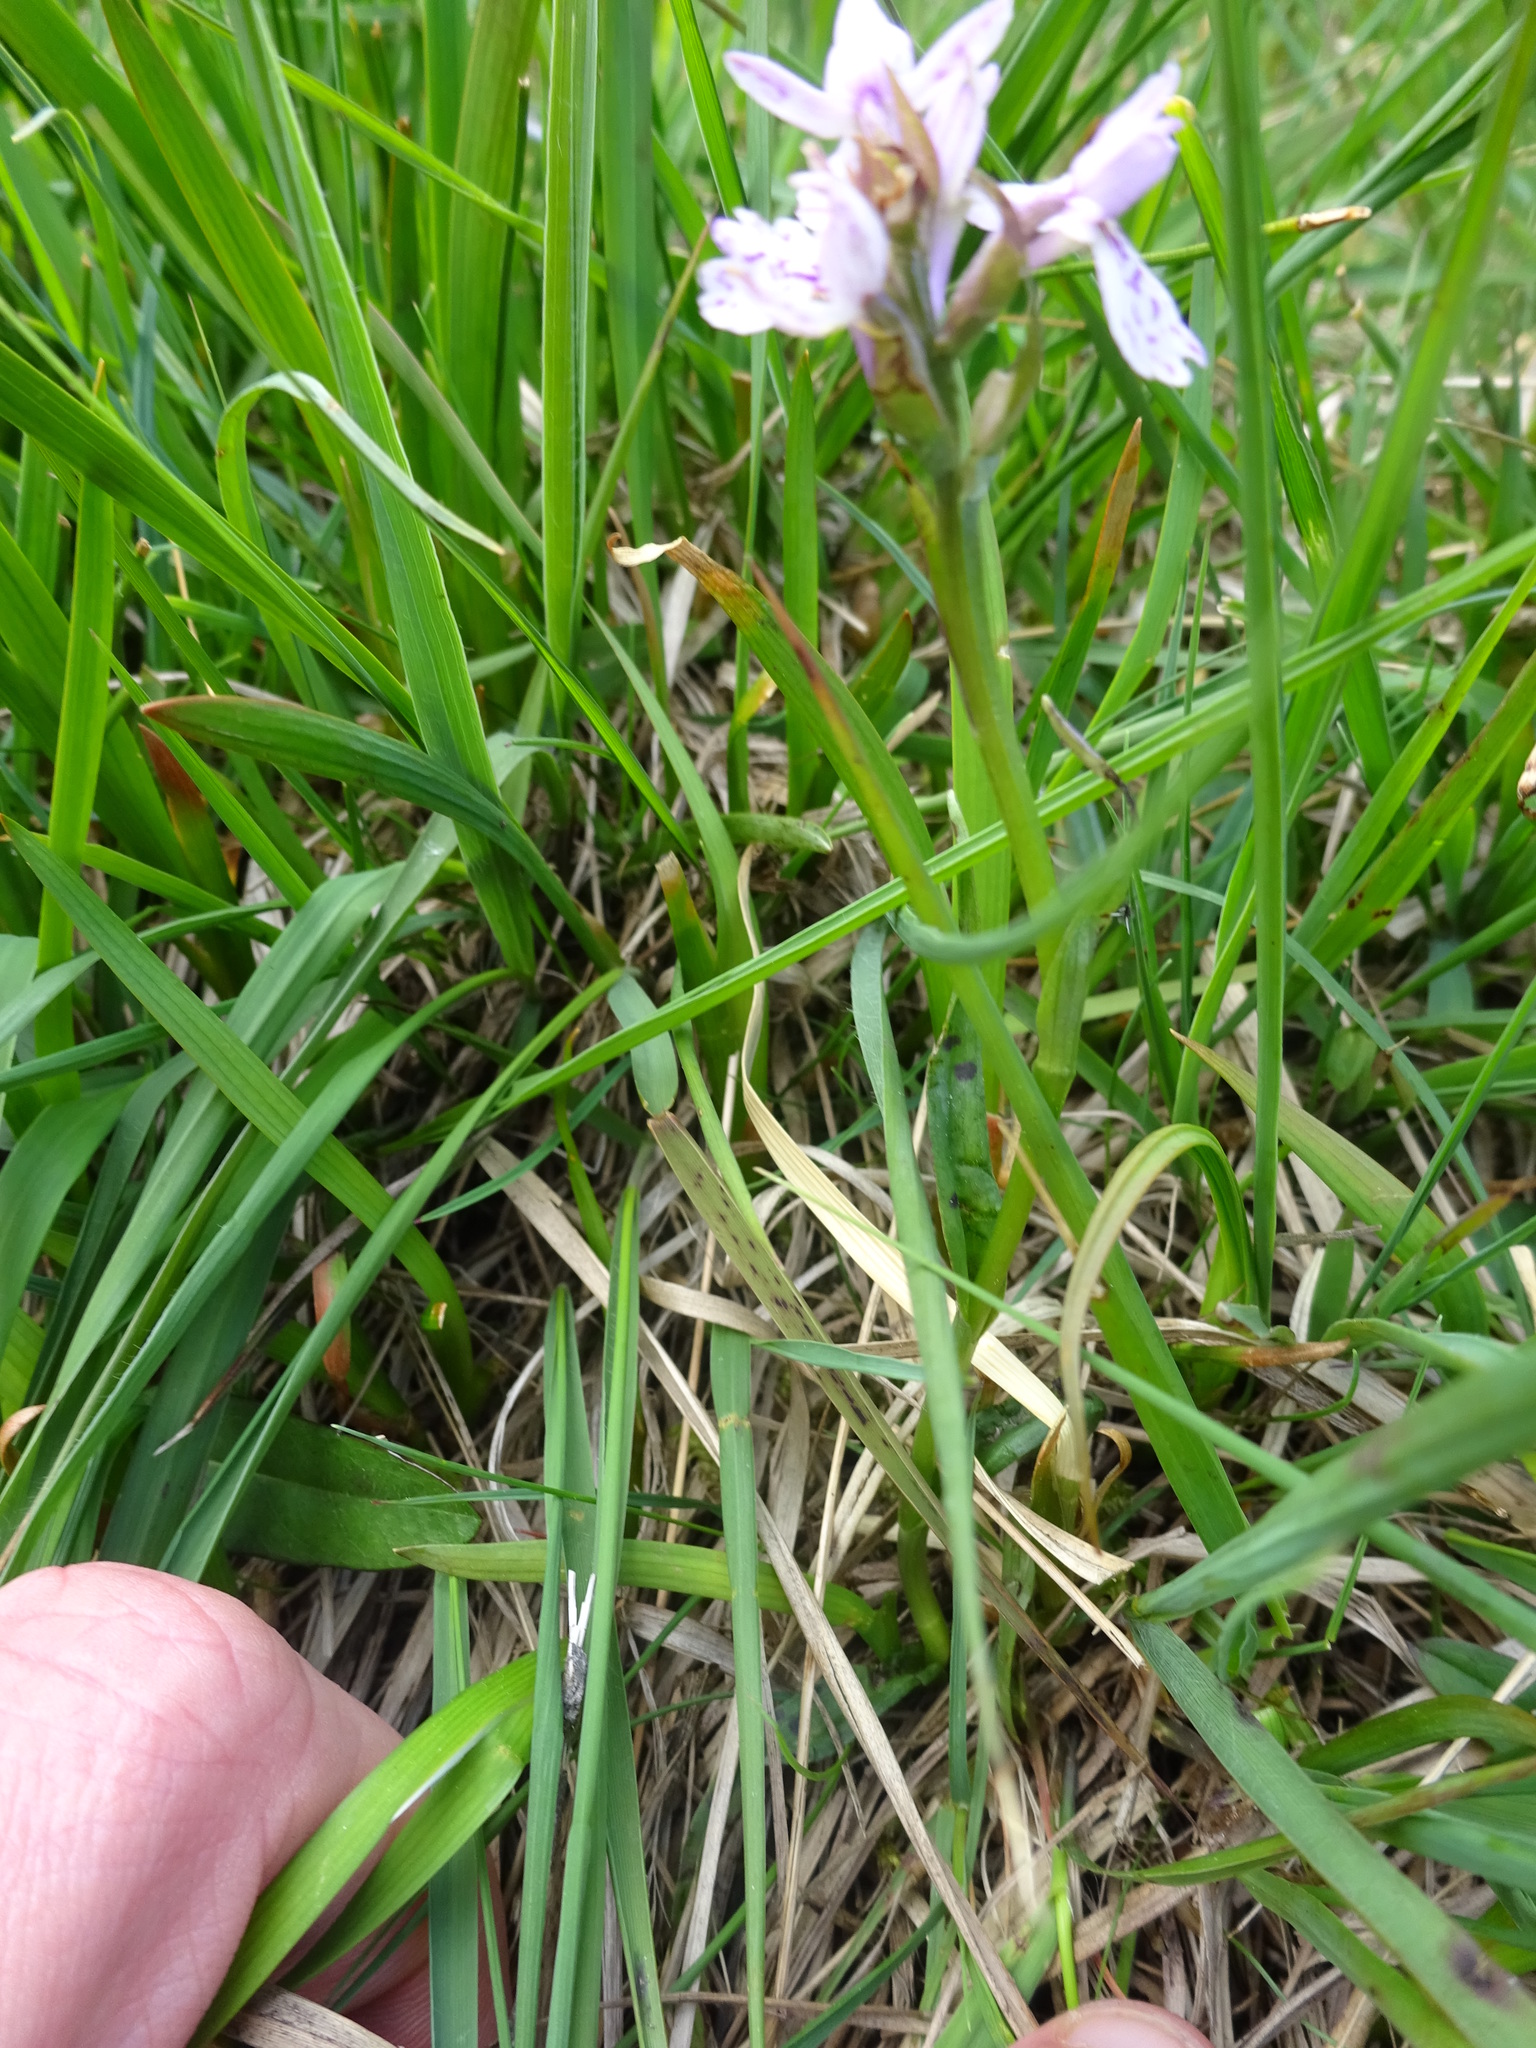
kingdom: Plantae
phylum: Tracheophyta
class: Liliopsida
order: Asparagales
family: Orchidaceae
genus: Dactylorhiza
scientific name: Dactylorhiza maculata
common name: Heath spotted-orchid
